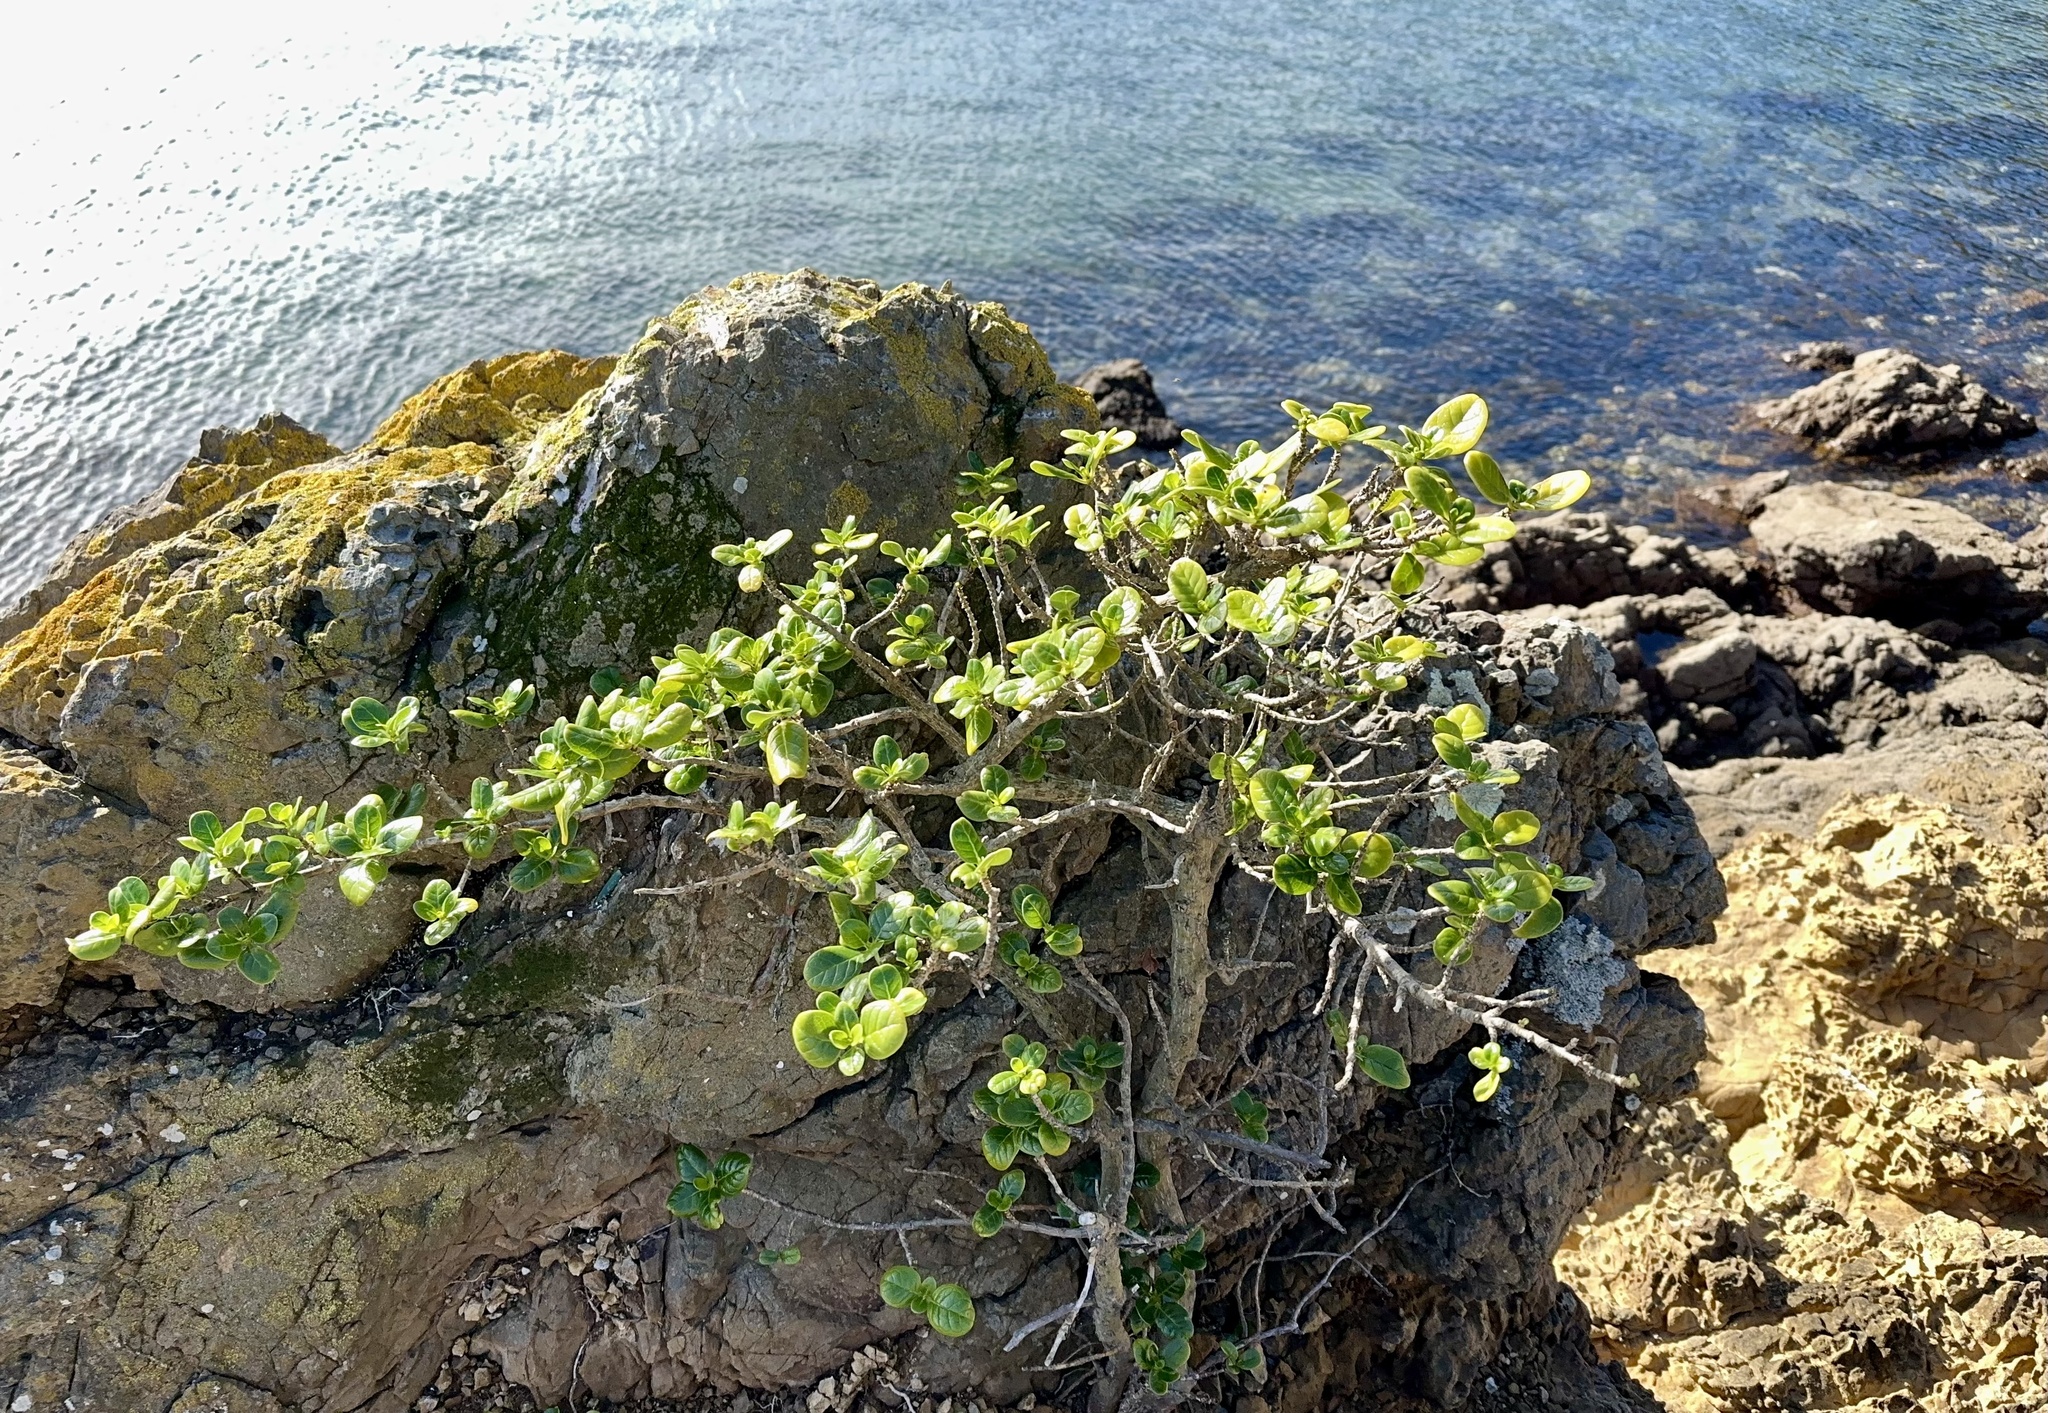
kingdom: Plantae
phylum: Tracheophyta
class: Magnoliopsida
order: Gentianales
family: Rubiaceae
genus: Coprosma
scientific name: Coprosma repens
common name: Tree bedstraw
